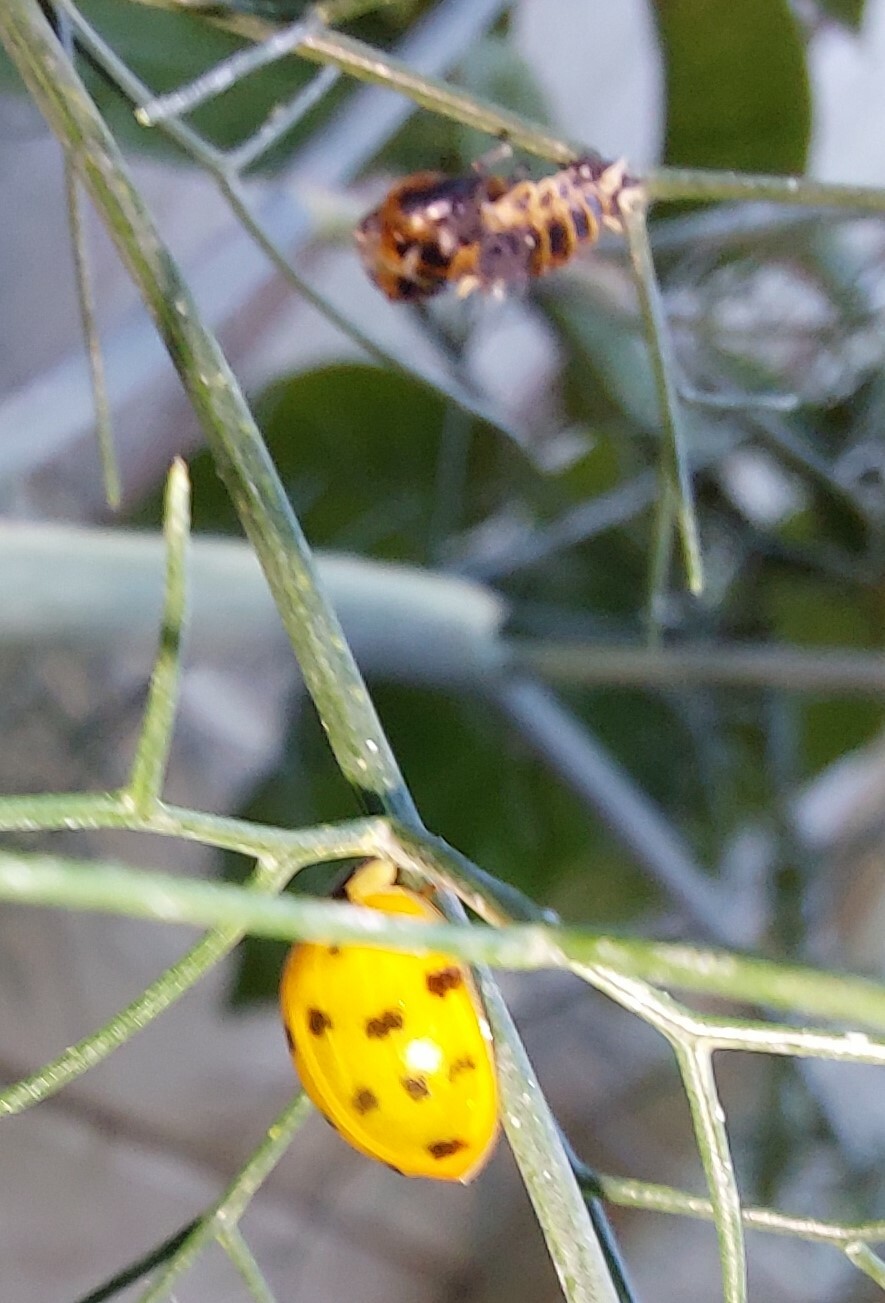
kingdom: Animalia
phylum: Arthropoda
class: Insecta
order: Coleoptera
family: Coccinellidae
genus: Harmonia
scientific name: Harmonia axyridis
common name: Harlequin ladybird
